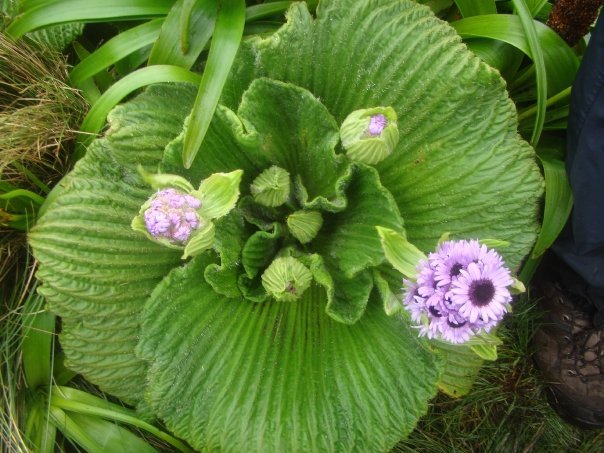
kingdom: Plantae
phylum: Tracheophyta
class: Magnoliopsida
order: Asterales
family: Asteraceae
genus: Pleurophyllum
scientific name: Pleurophyllum speciosum
